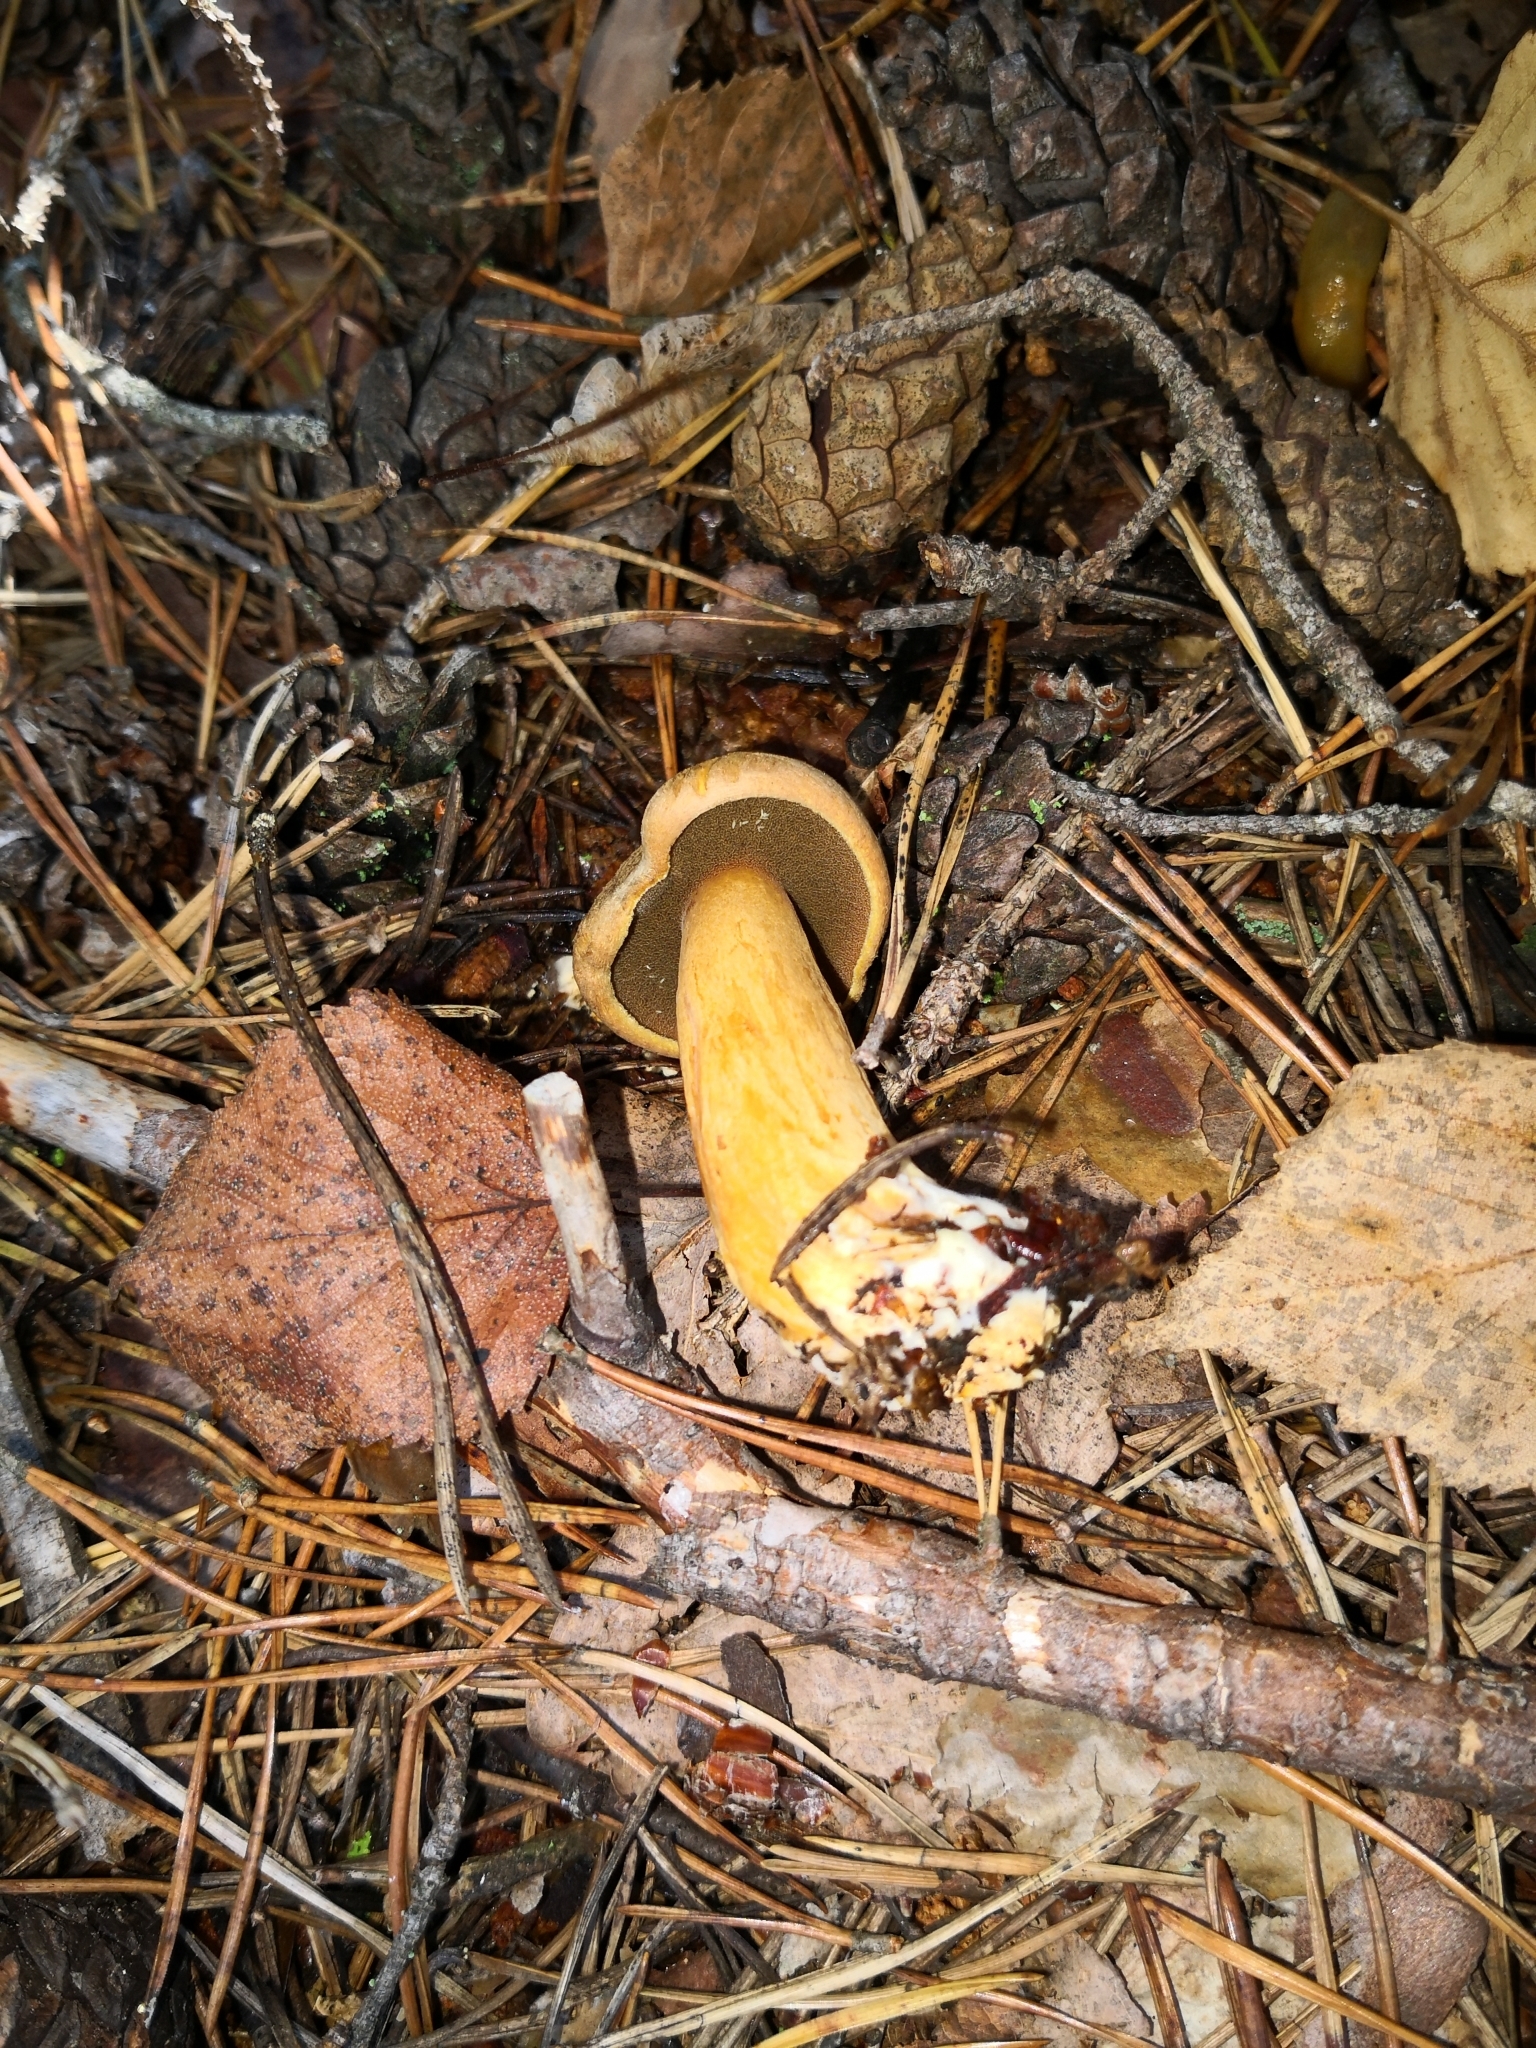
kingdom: Fungi
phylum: Basidiomycota
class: Agaricomycetes
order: Boletales
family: Suillaceae
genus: Suillus
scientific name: Suillus variegatus
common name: Velvet bolete
